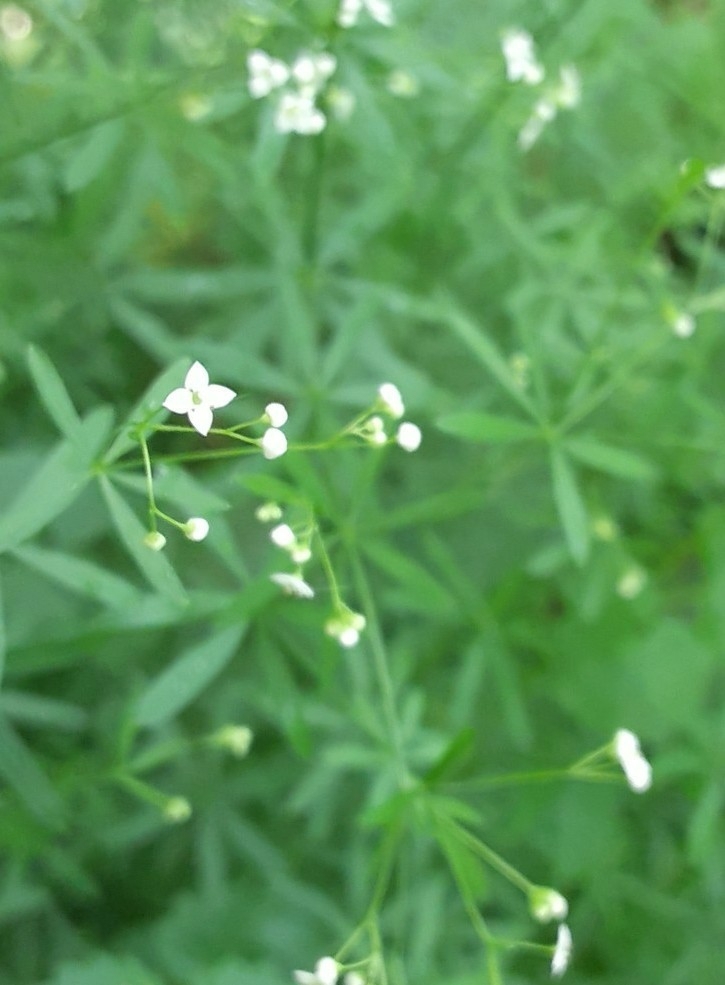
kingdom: Plantae
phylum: Tracheophyta
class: Magnoliopsida
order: Gentianales
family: Rubiaceae
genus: Galium
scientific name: Galium concinnum
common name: Shining bedstraw
